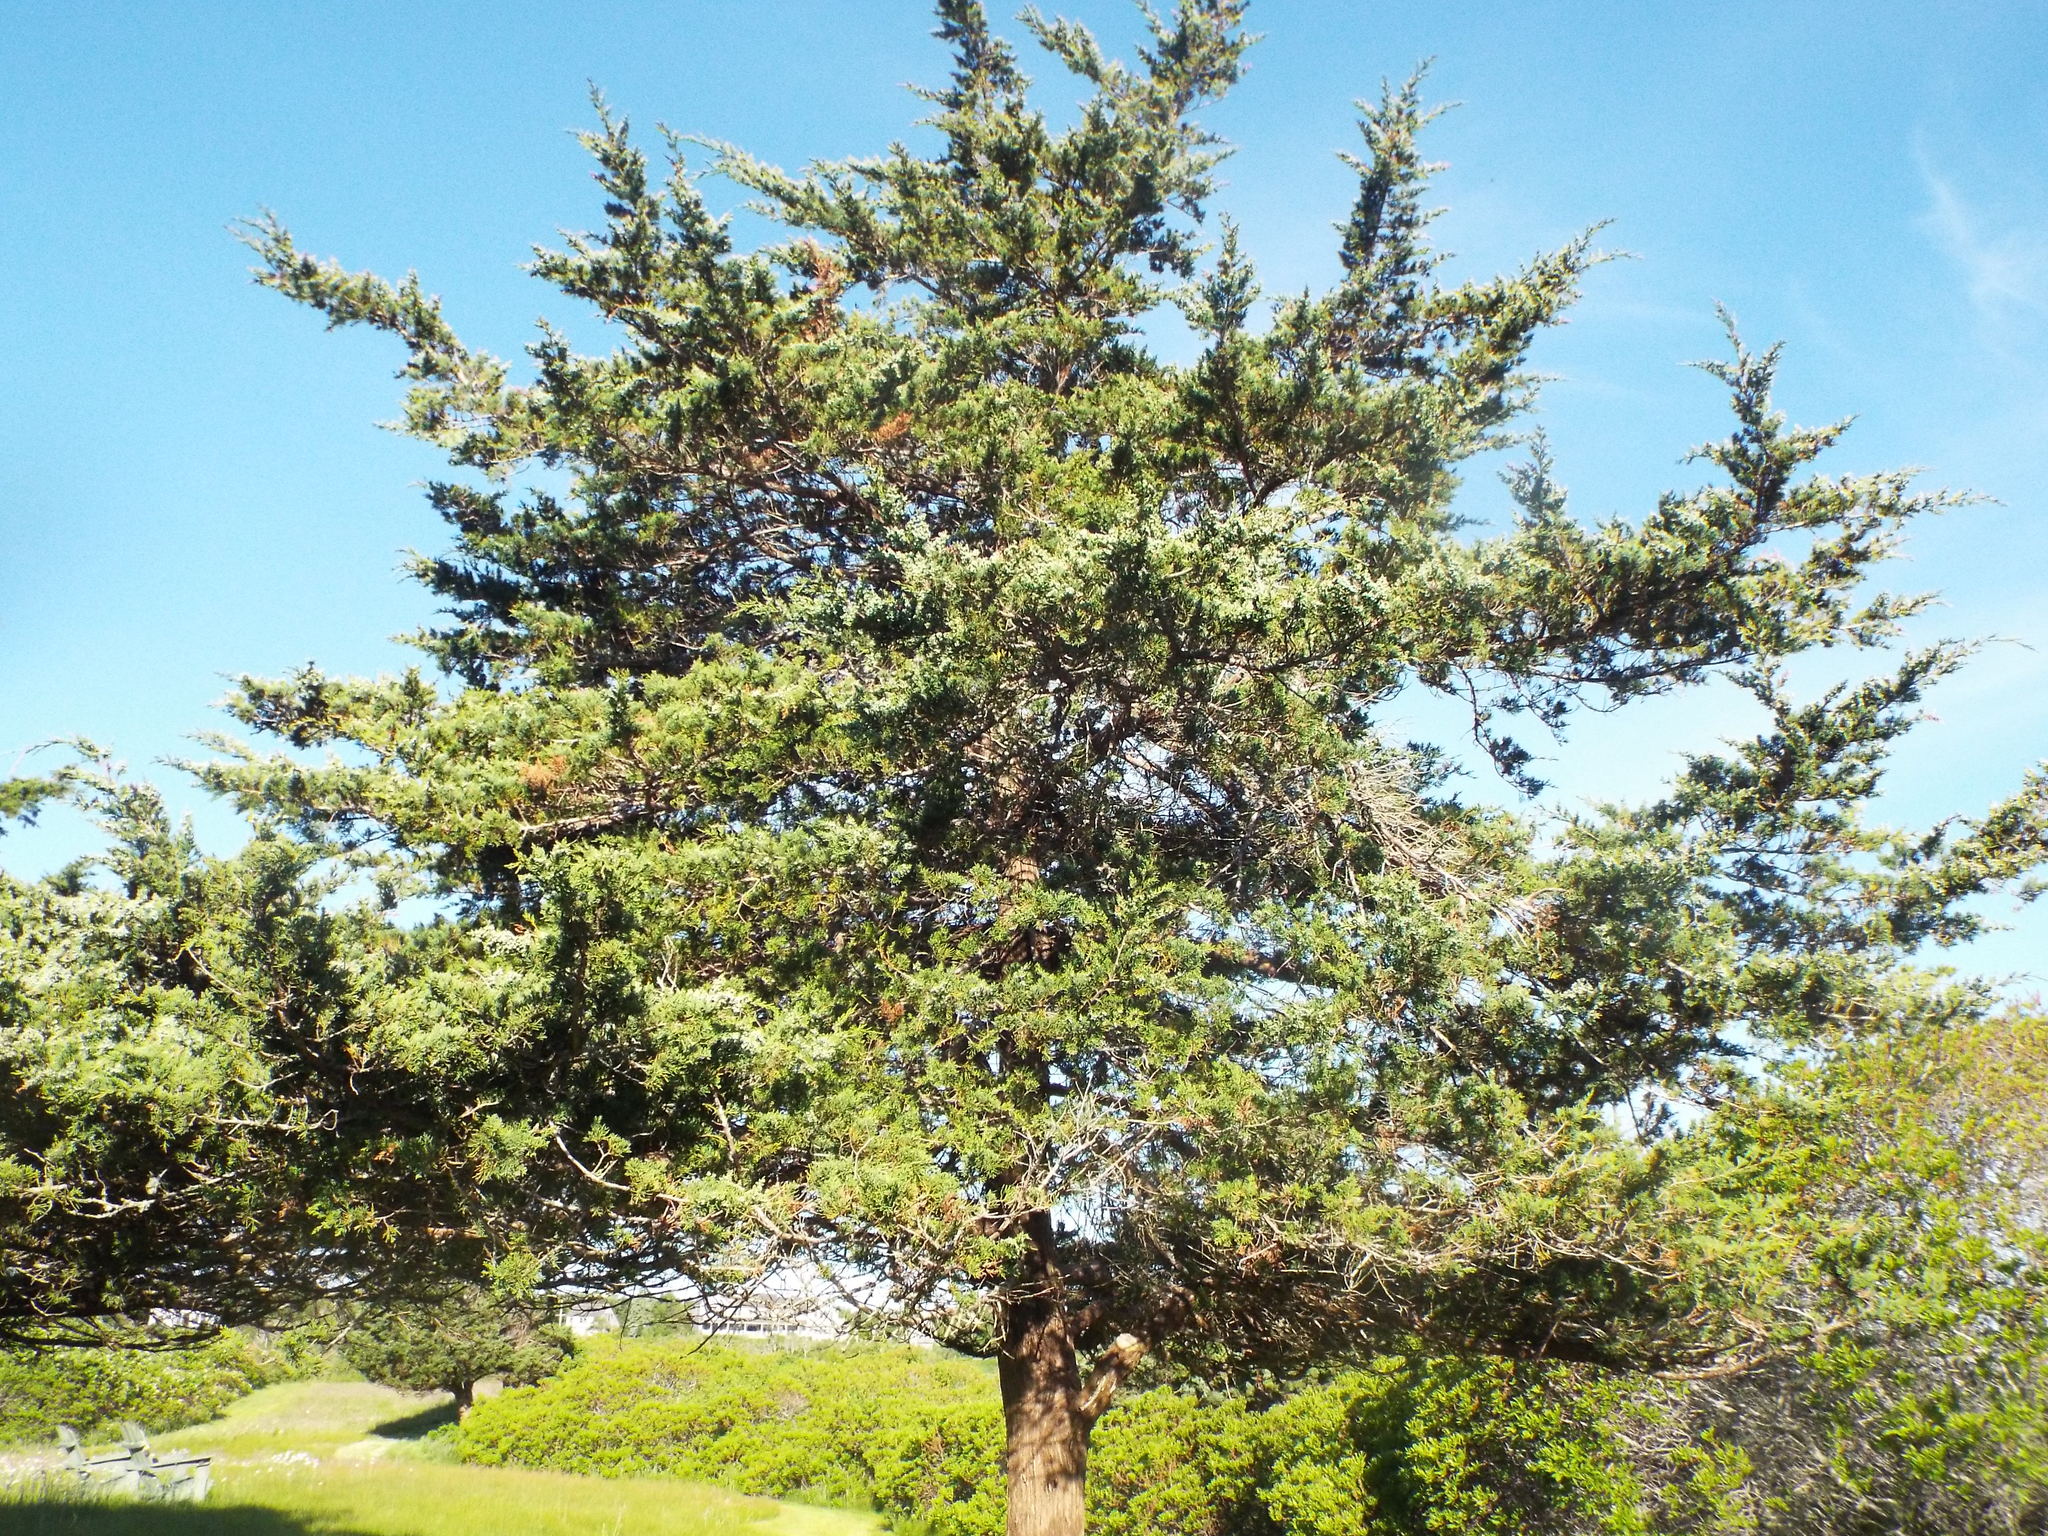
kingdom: Plantae
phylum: Tracheophyta
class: Pinopsida
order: Pinales
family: Cupressaceae
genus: Juniperus
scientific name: Juniperus virginiana
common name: Red juniper
